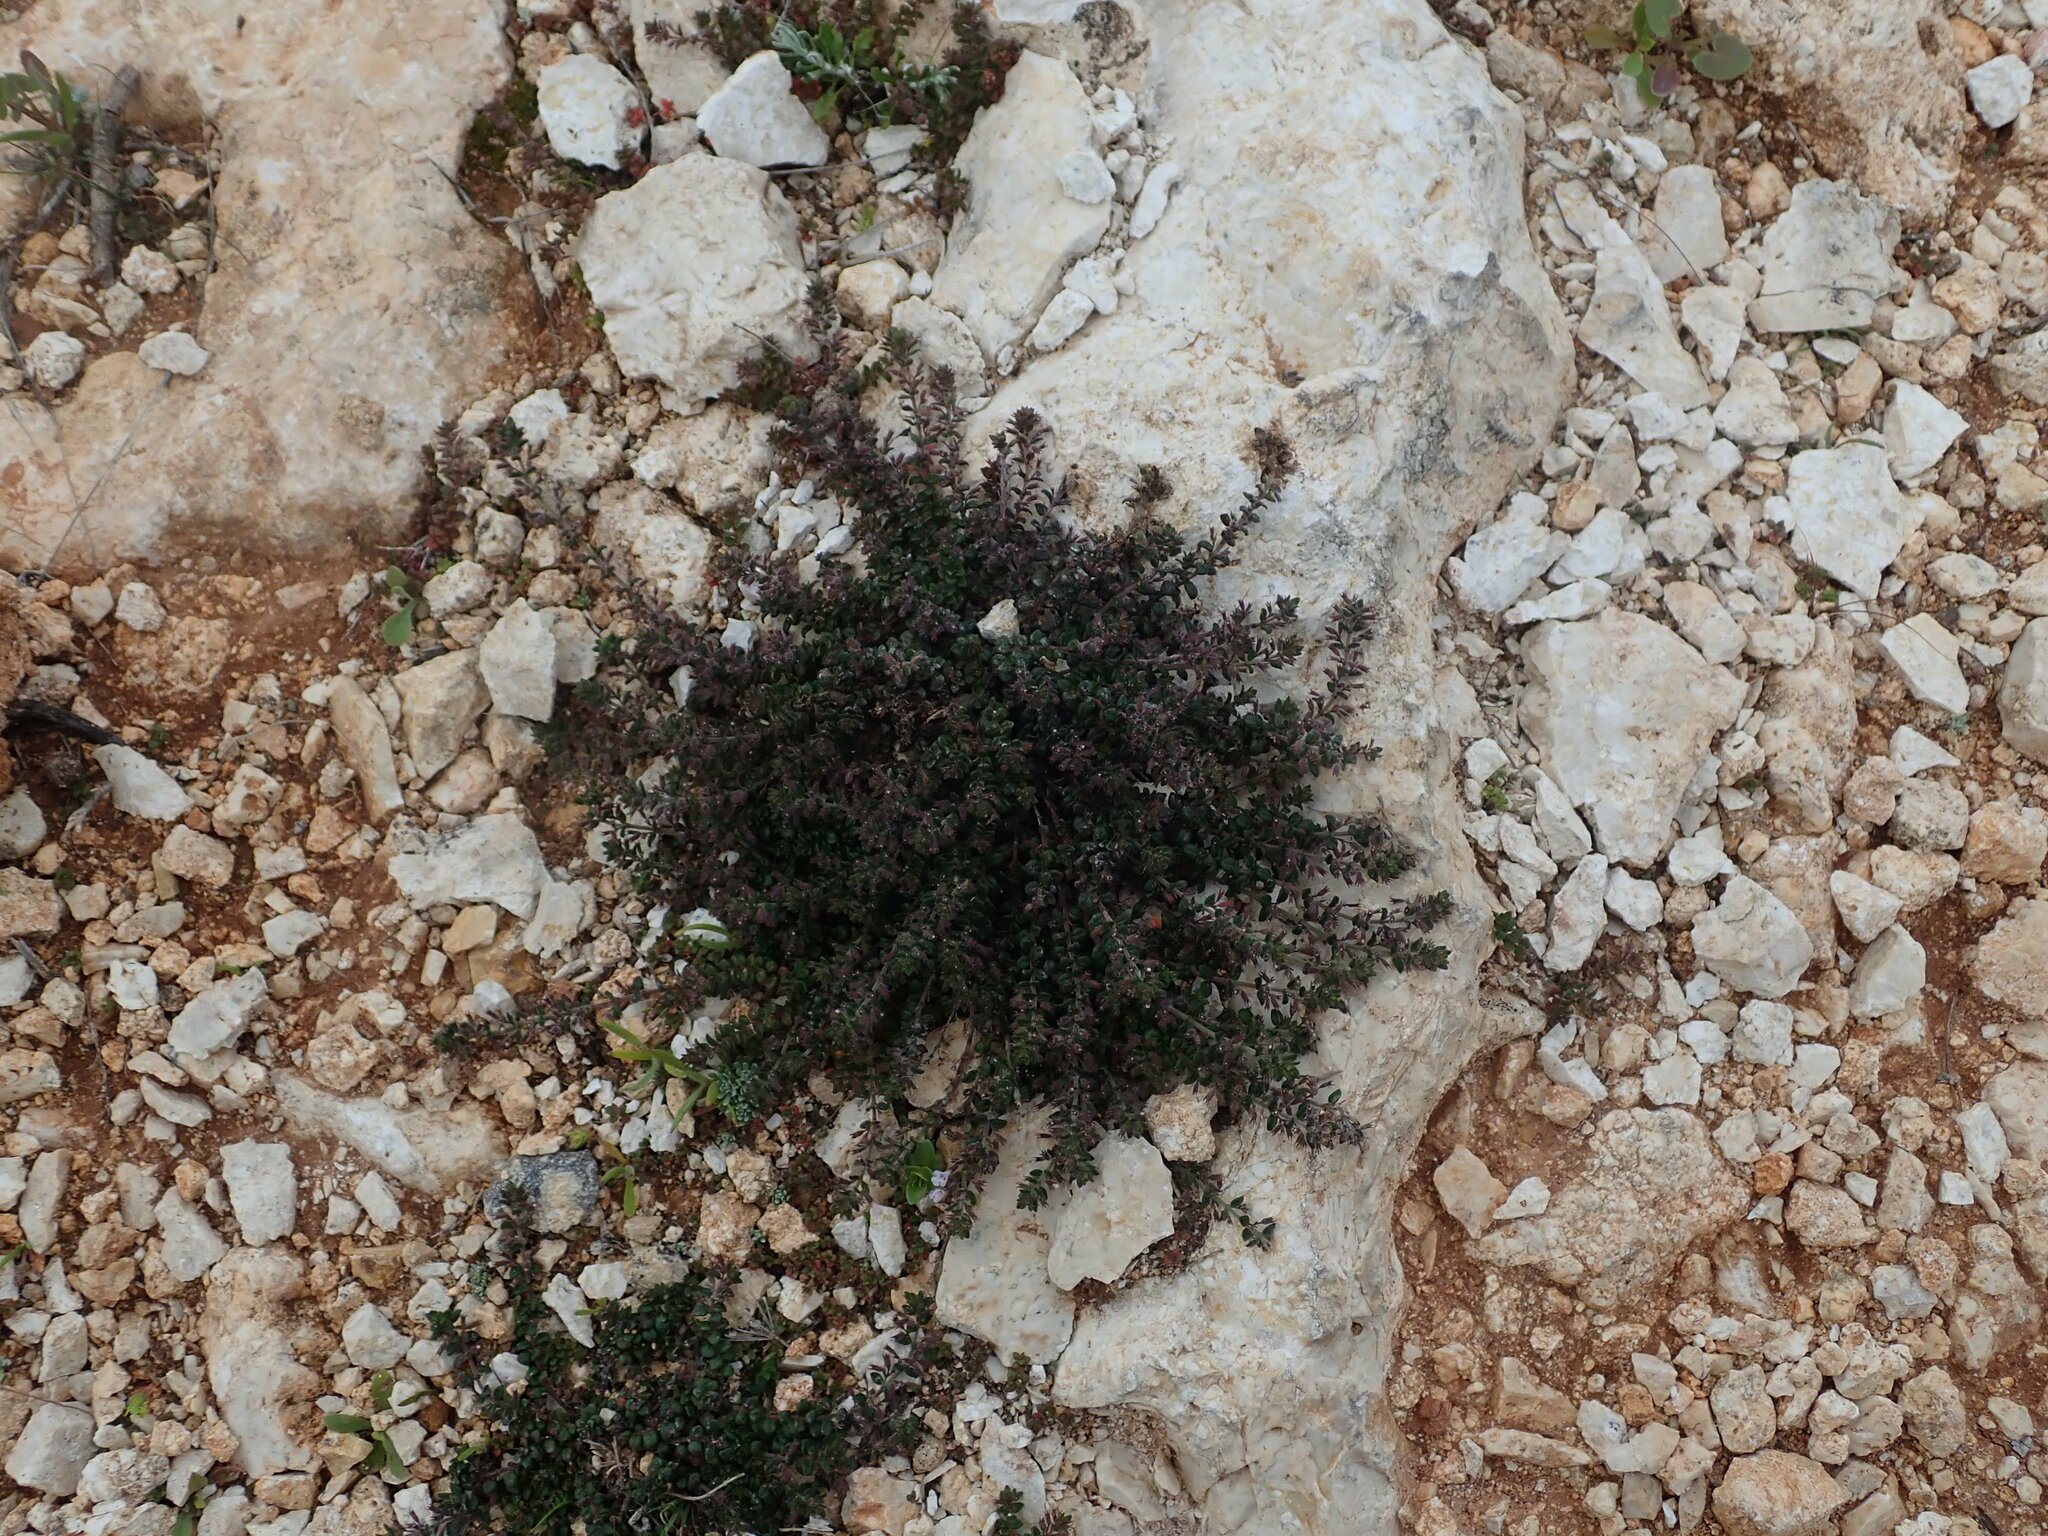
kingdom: Plantae
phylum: Tracheophyta
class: Magnoliopsida
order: Lamiales
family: Lamiaceae
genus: Micromeria
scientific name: Micromeria microphylla
